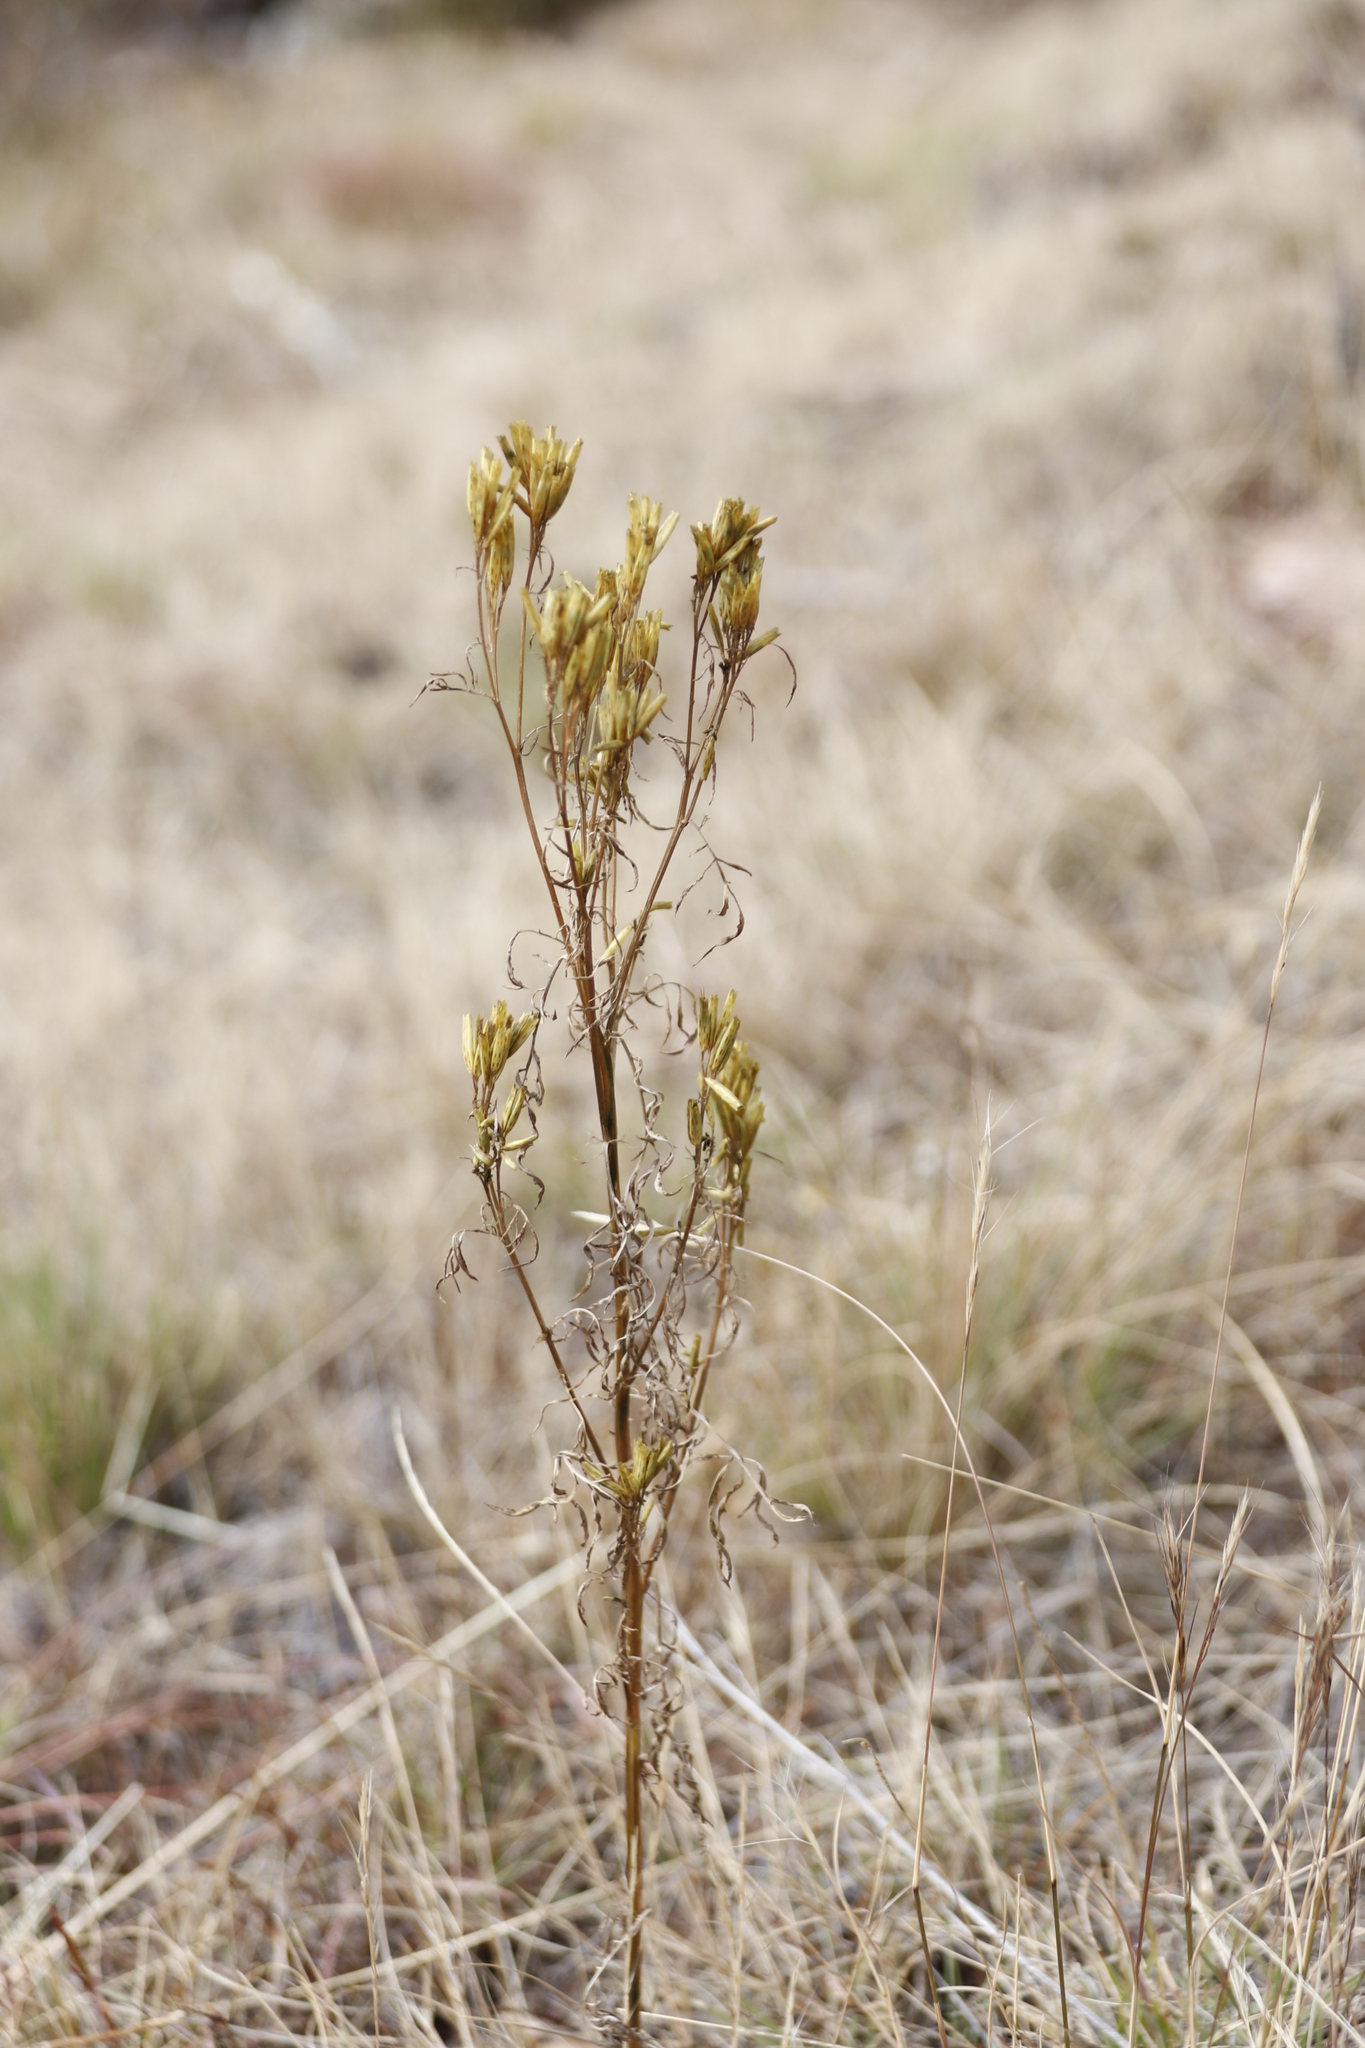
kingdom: Plantae
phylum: Tracheophyta
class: Magnoliopsida
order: Asterales
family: Asteraceae
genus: Tagetes
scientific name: Tagetes minuta
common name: Muster john henry
